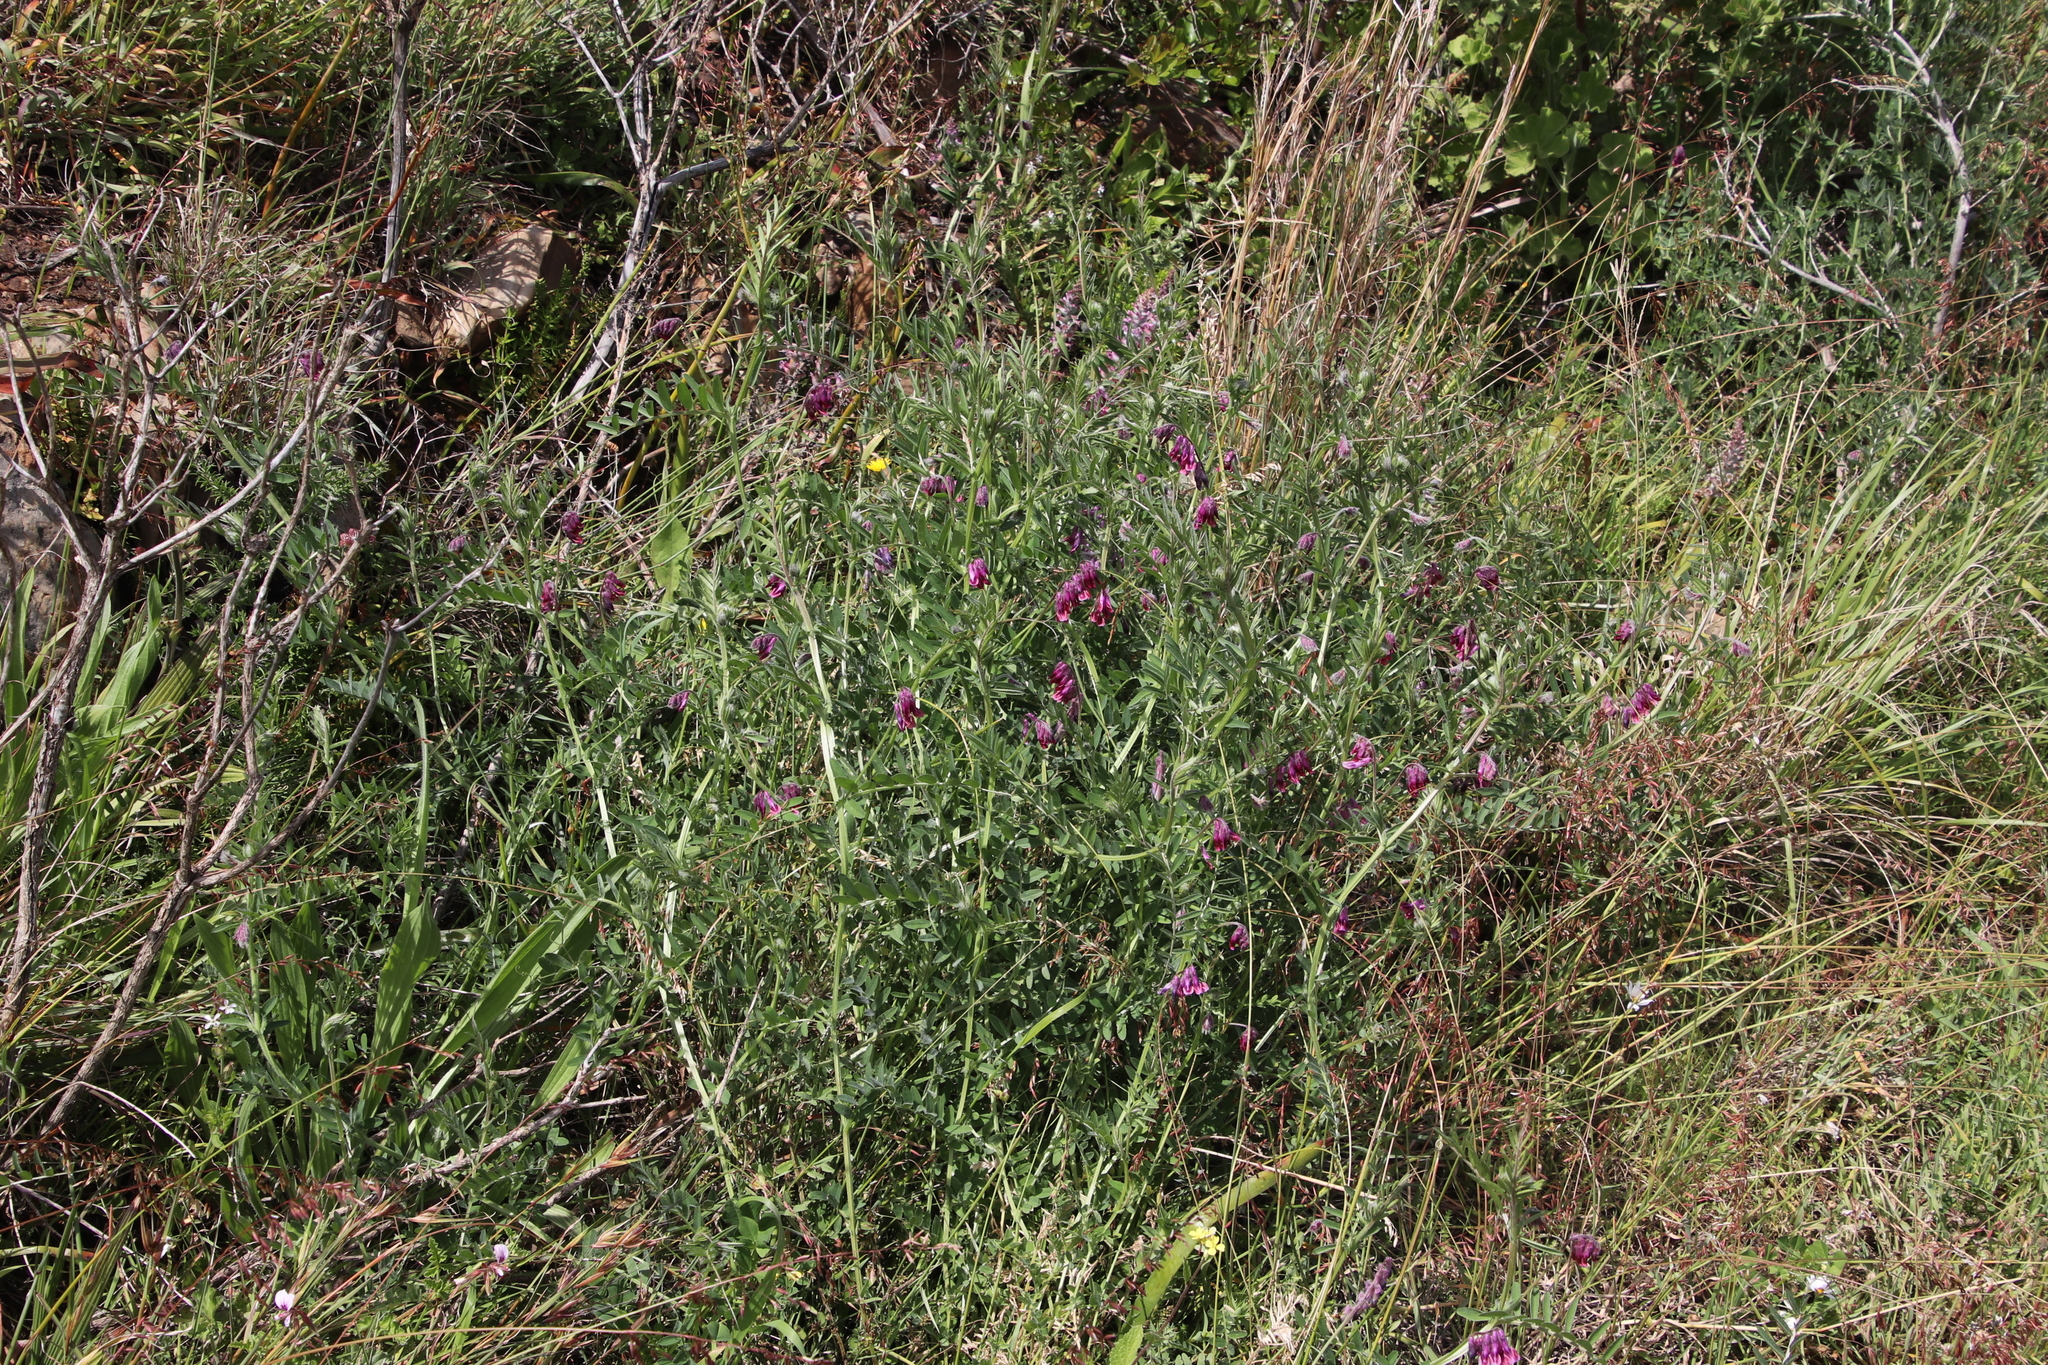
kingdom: Plantae
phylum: Tracheophyta
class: Magnoliopsida
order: Fabales
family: Fabaceae
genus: Vicia
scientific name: Vicia benghalensis
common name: Purple vetch
